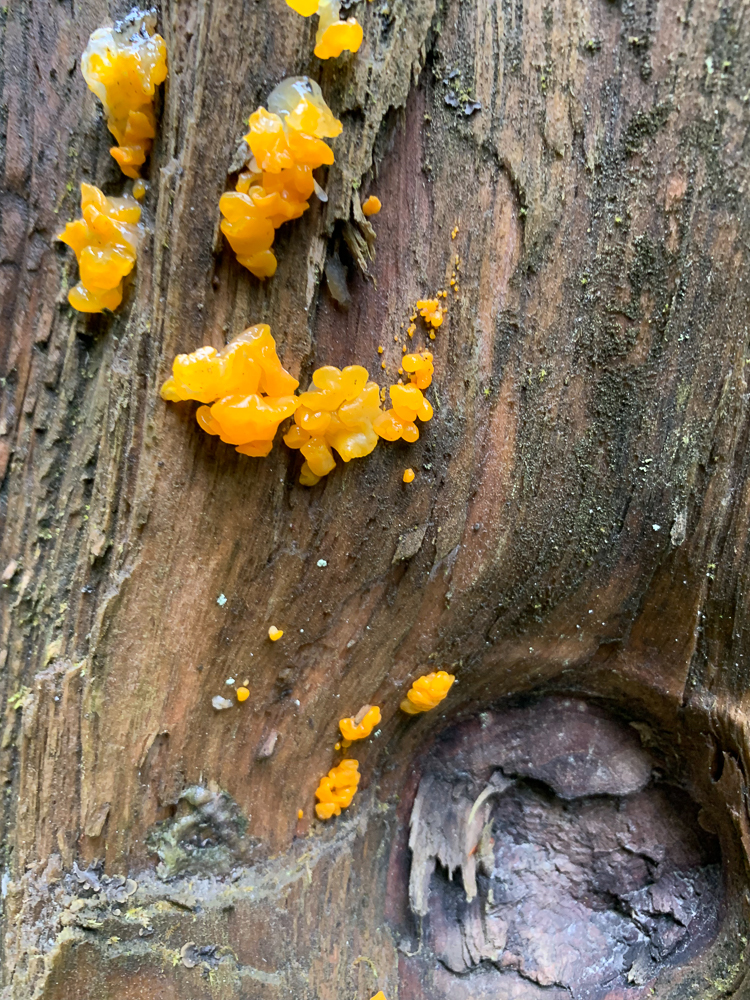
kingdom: Fungi
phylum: Basidiomycota
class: Dacrymycetes
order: Dacrymycetales
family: Dacrymycetaceae
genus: Dacrymyces
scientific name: Dacrymyces chrysospermus
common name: Orange jelly spot
